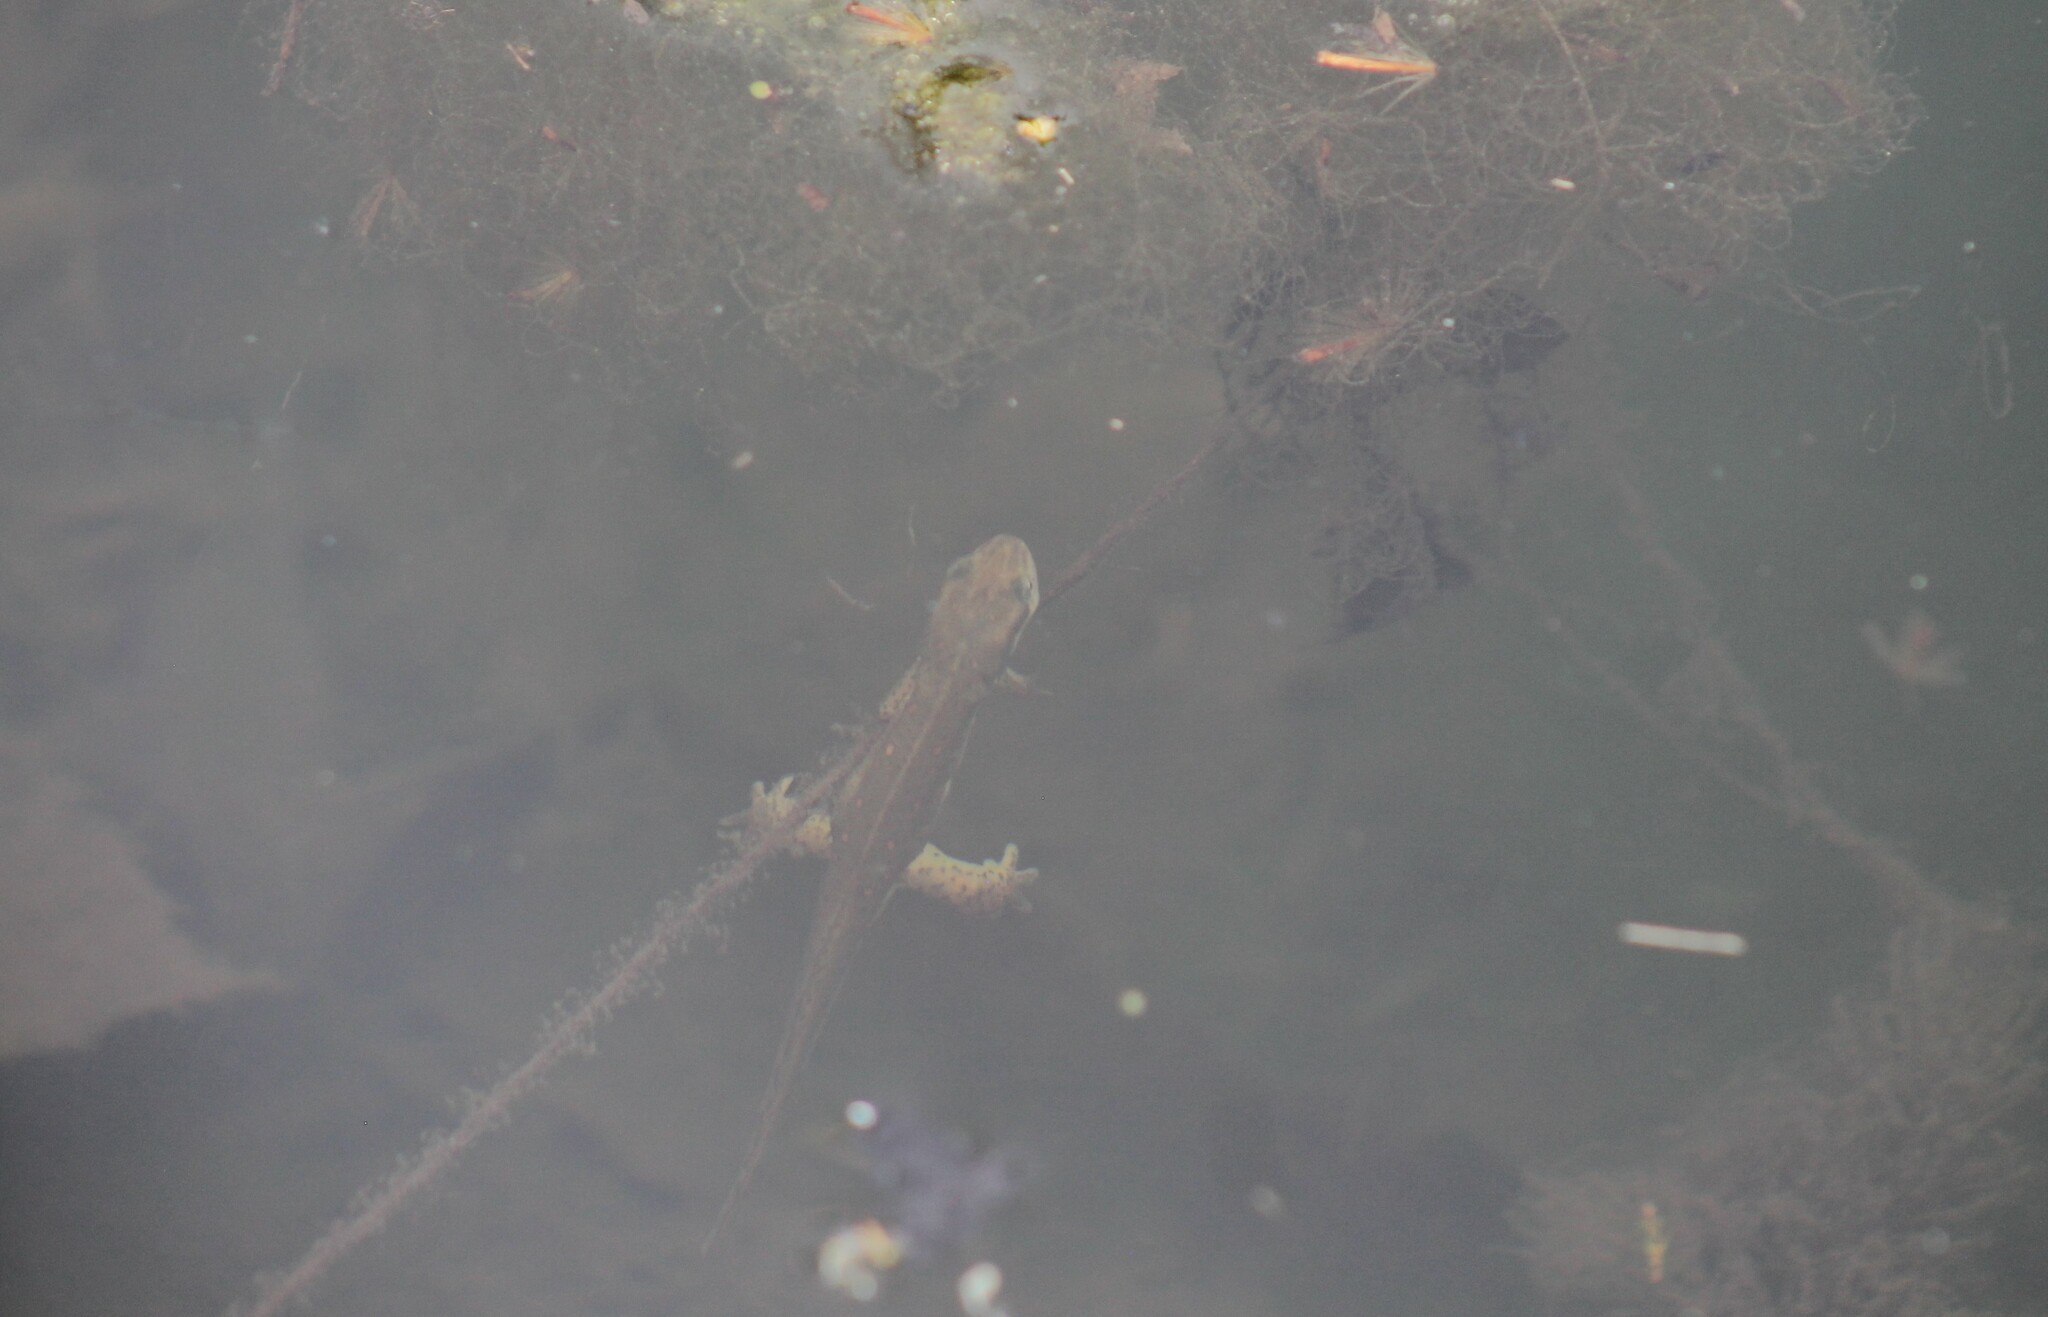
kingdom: Animalia
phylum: Chordata
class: Amphibia
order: Caudata
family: Salamandridae
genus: Notophthalmus
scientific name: Notophthalmus viridescens
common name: Eastern newt
